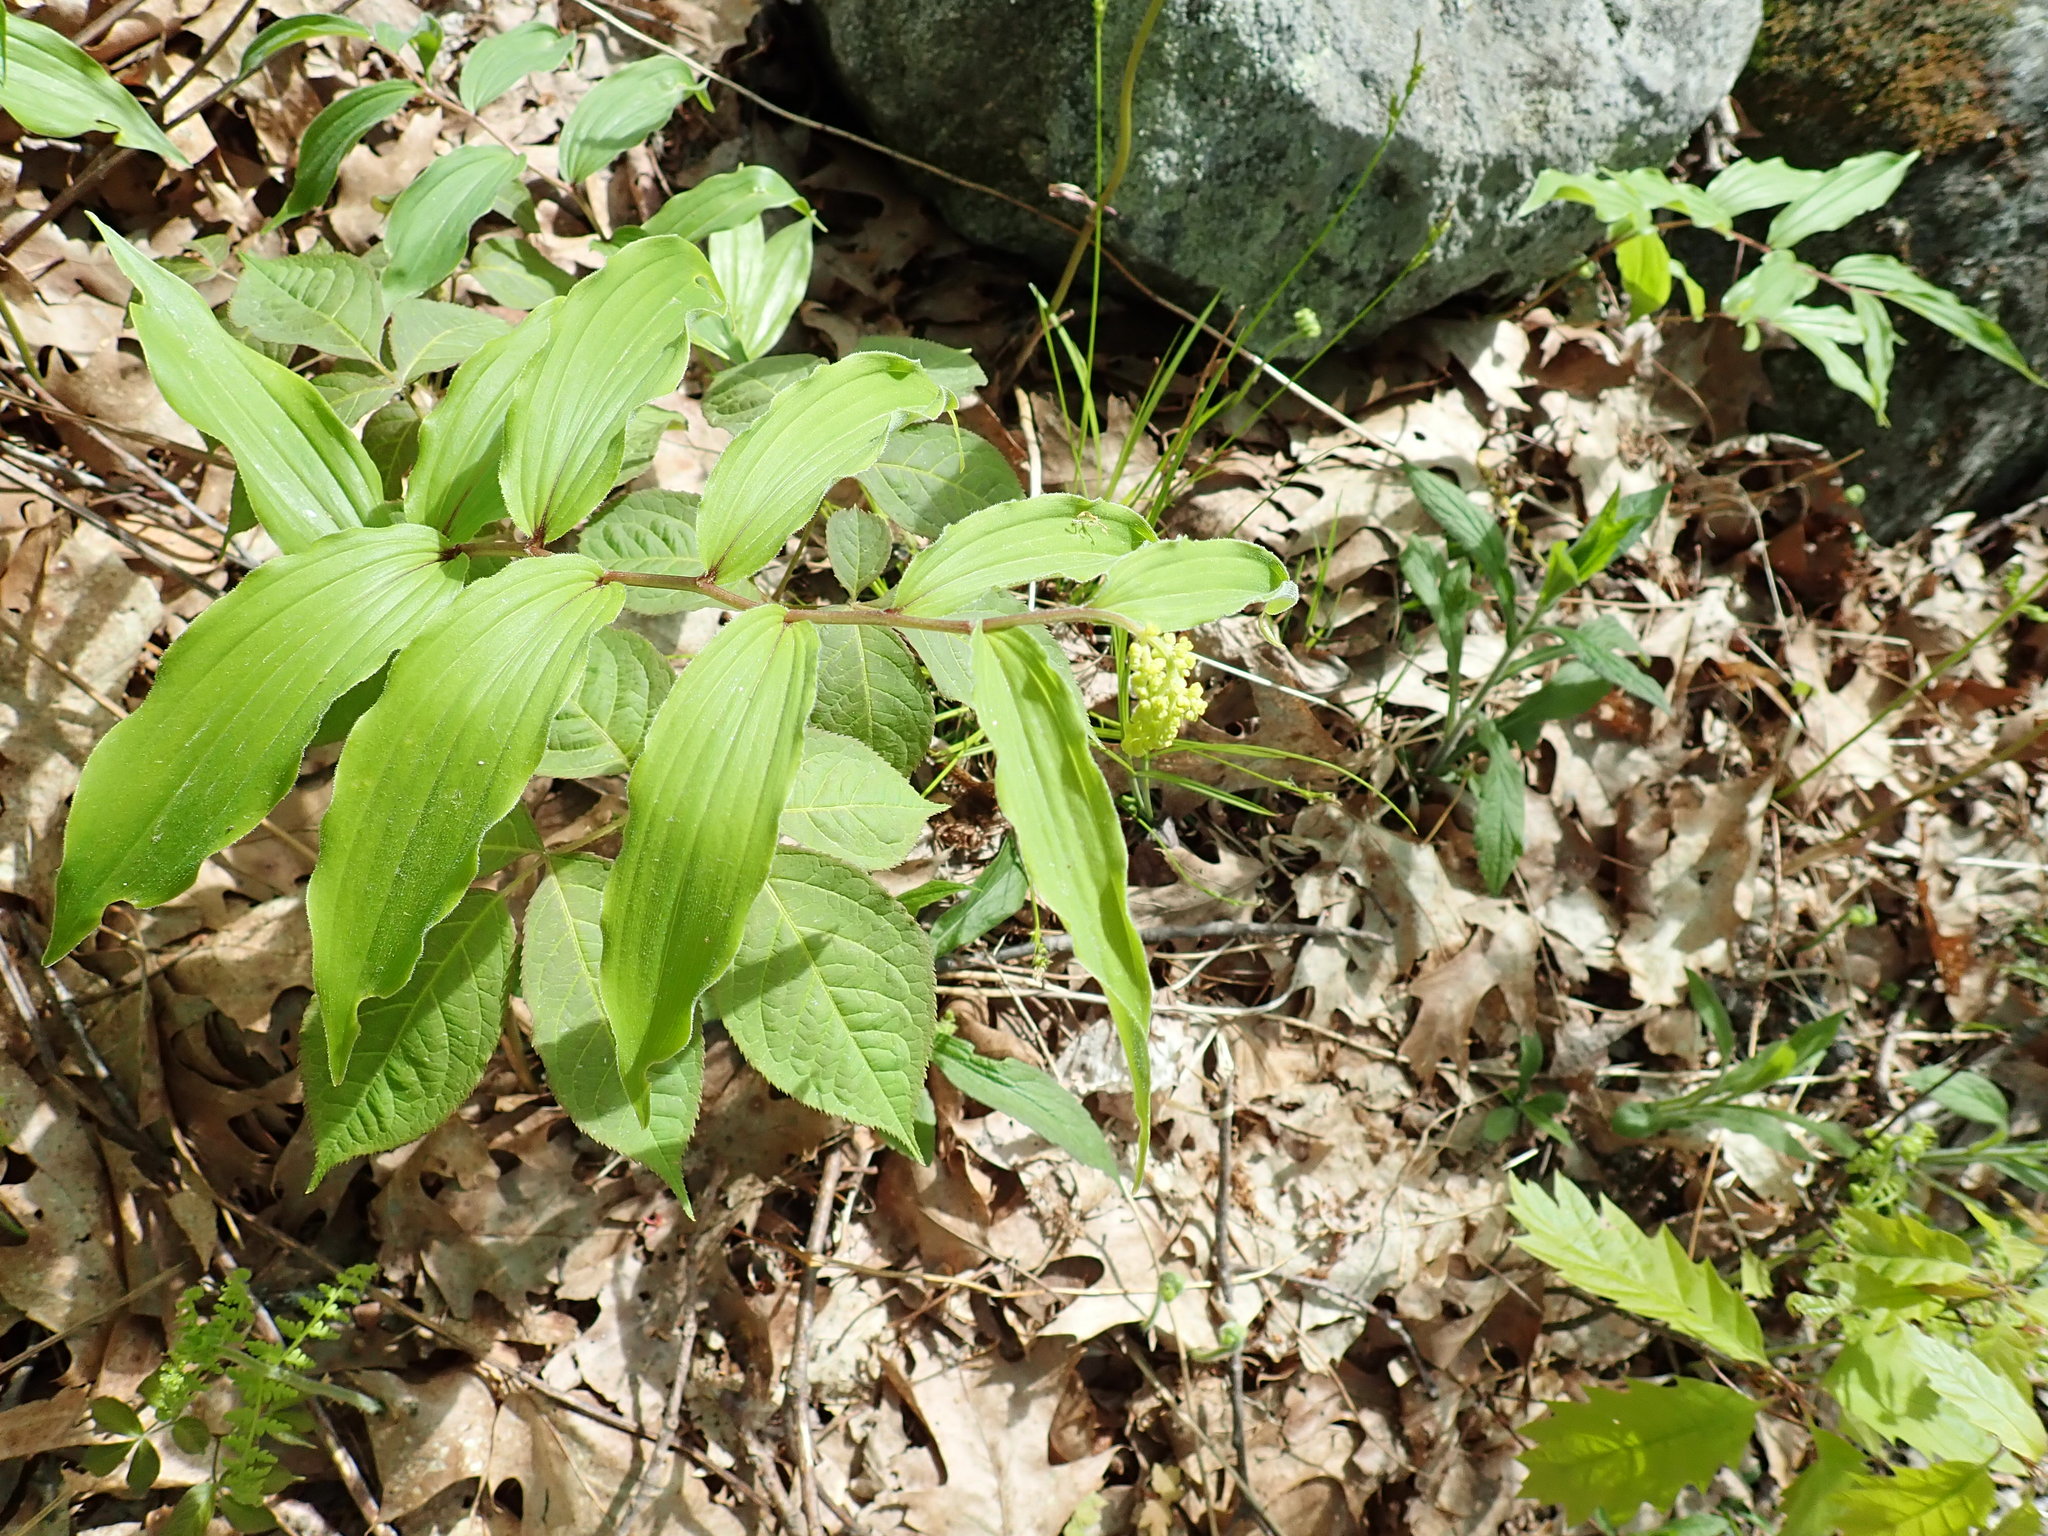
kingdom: Plantae
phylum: Tracheophyta
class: Liliopsida
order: Asparagales
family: Asparagaceae
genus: Maianthemum
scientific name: Maianthemum racemosum
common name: False spikenard
